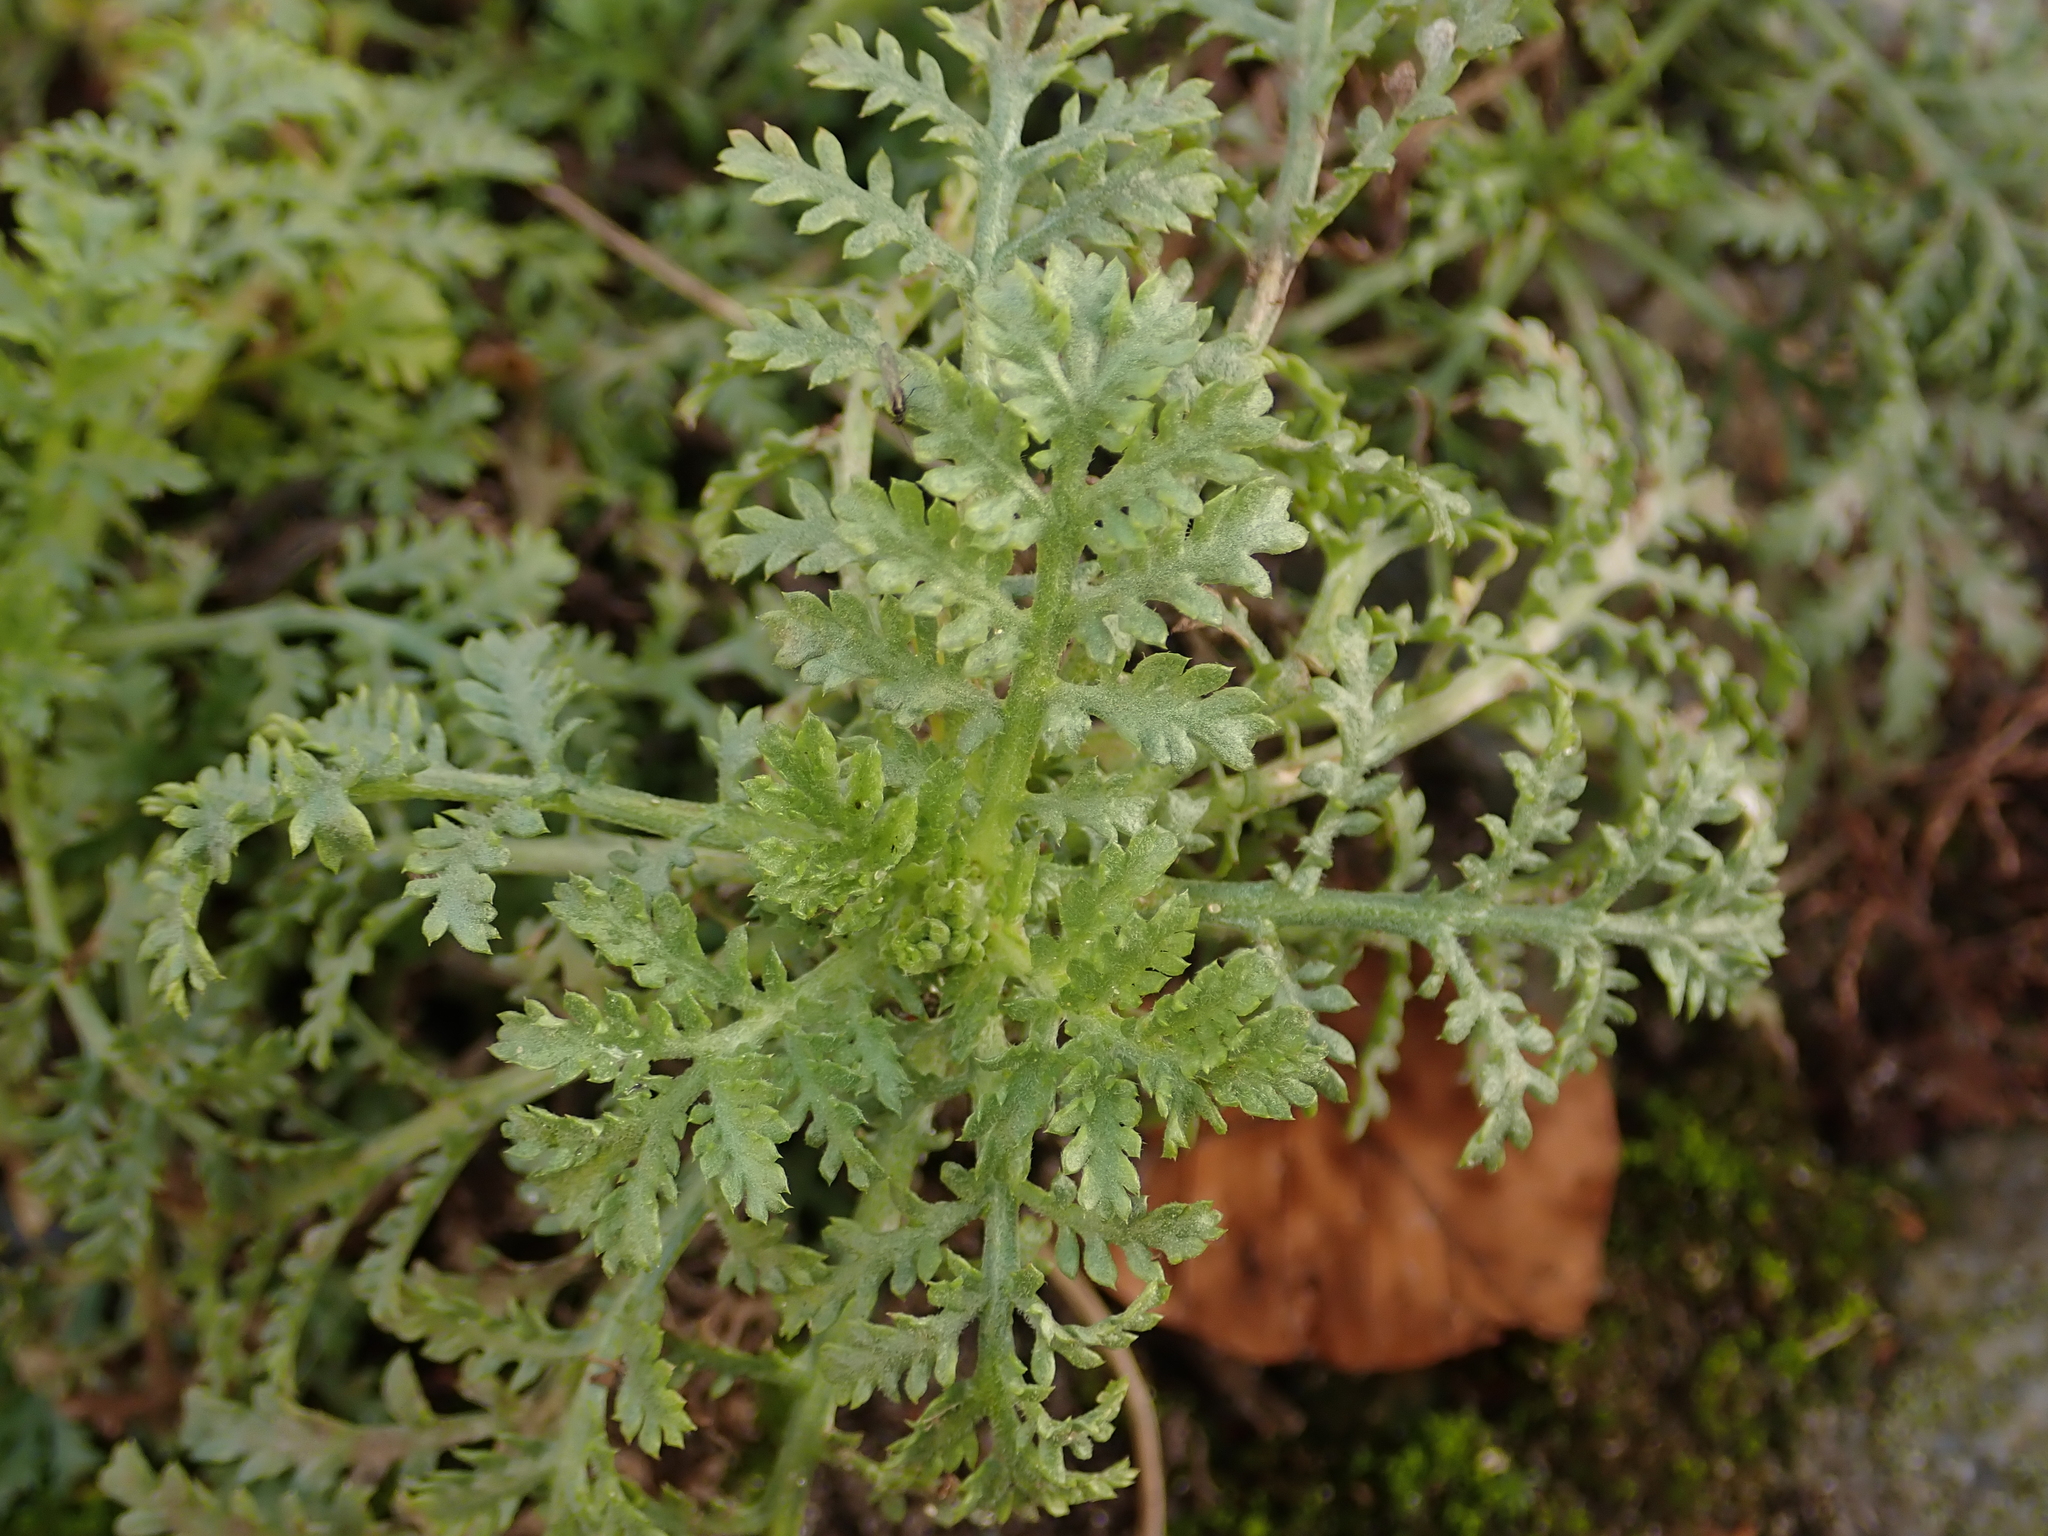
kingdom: Plantae
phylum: Tracheophyta
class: Magnoliopsida
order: Boraginales
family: Hydrophyllaceae
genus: Phacelia
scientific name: Phacelia tanacetifolia
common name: Phacelia
